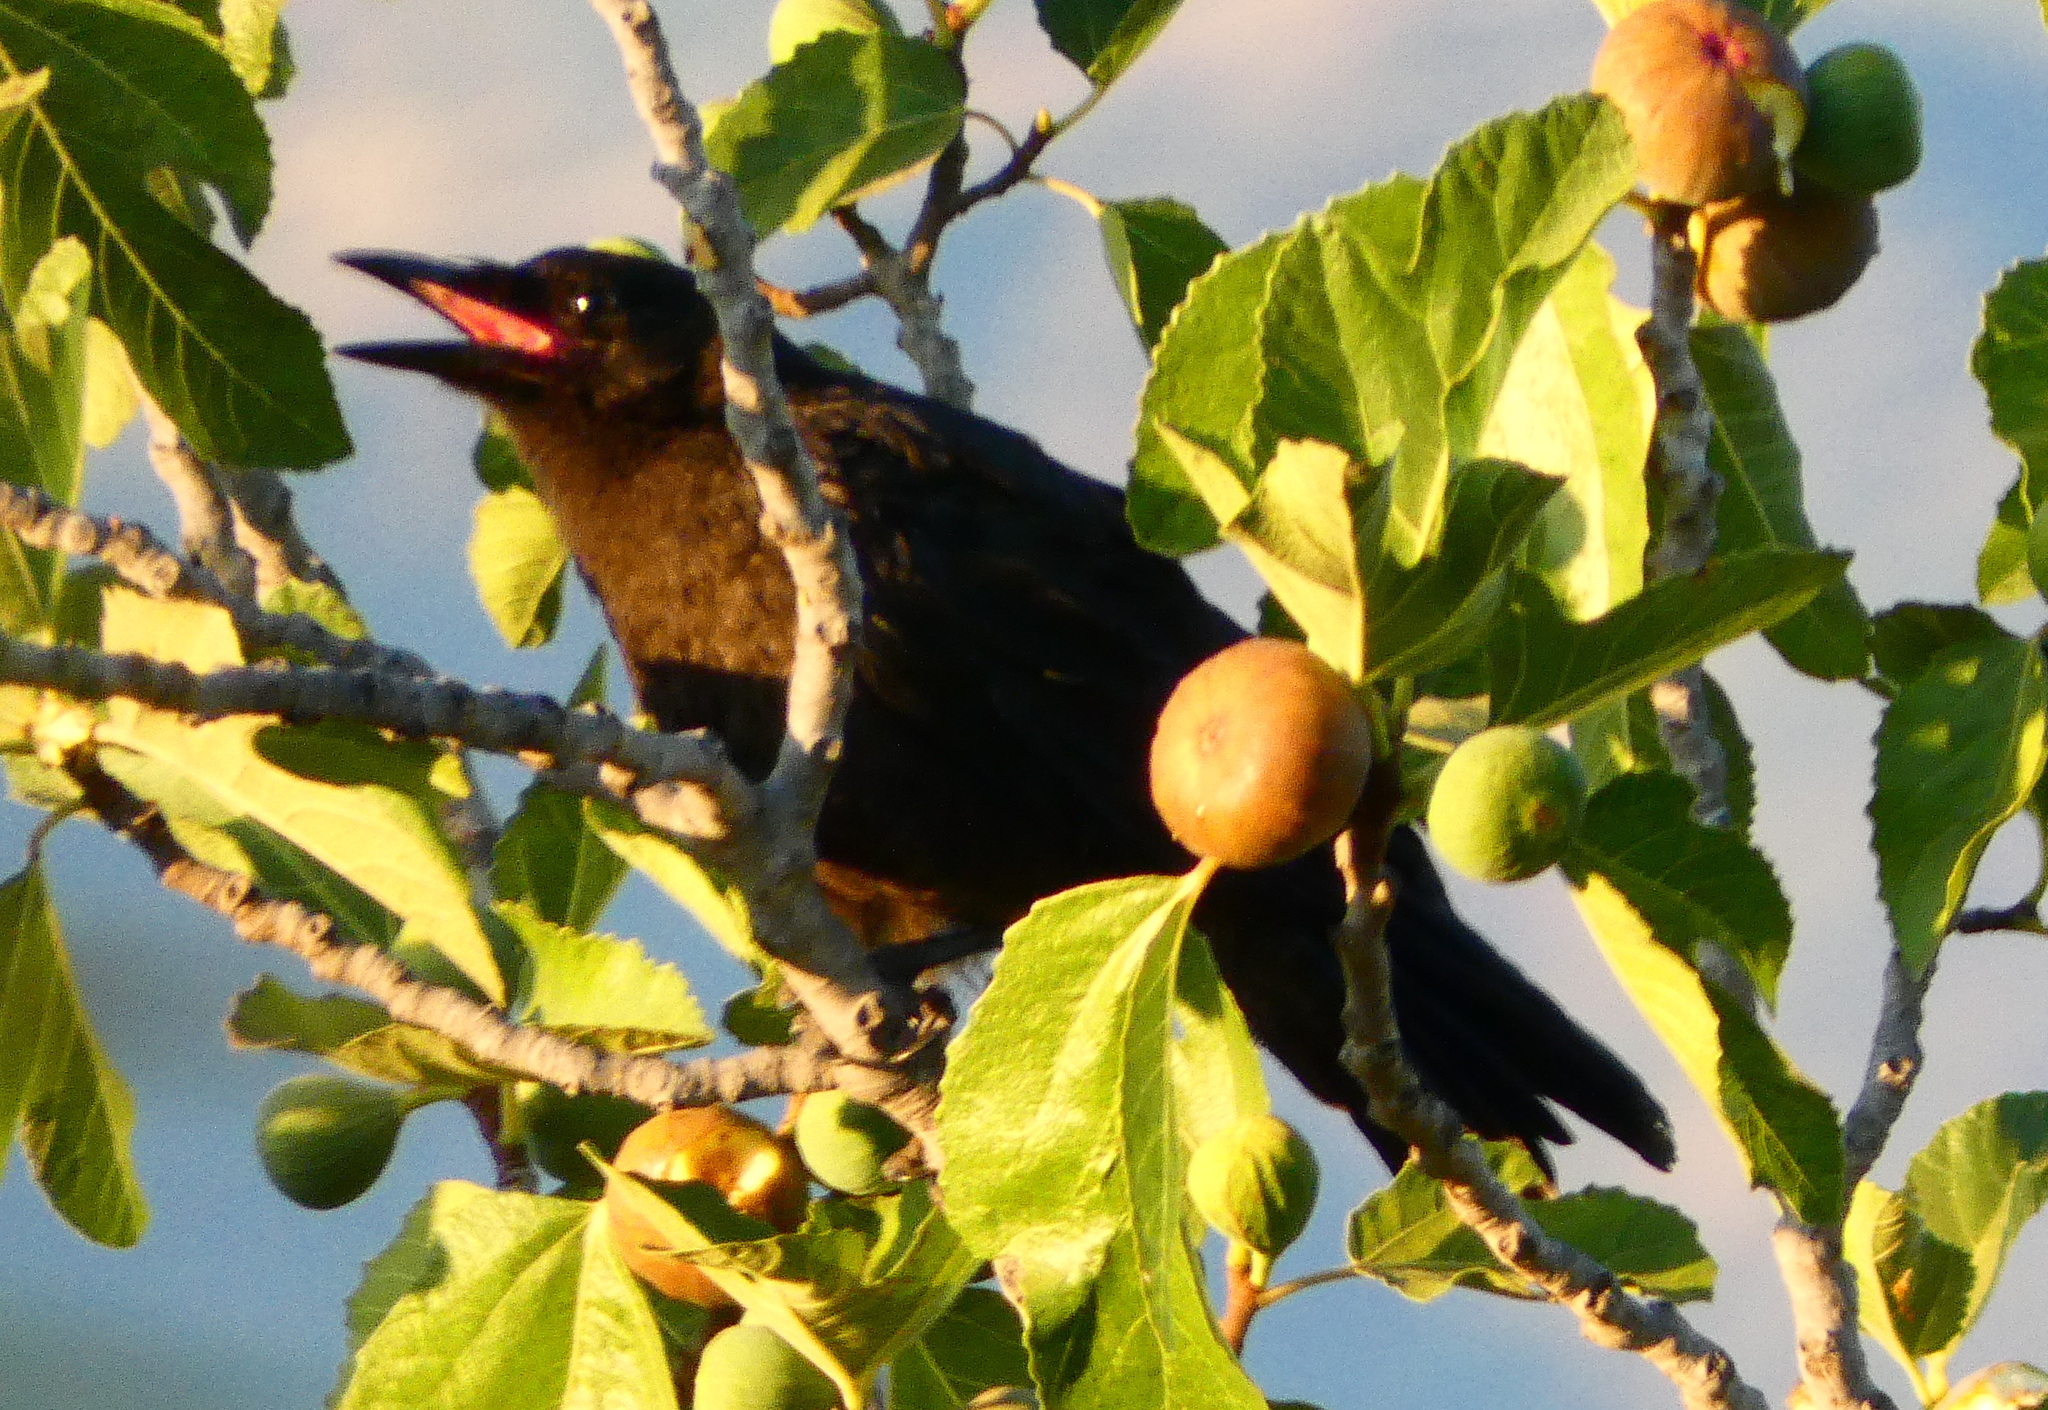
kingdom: Animalia
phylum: Chordata
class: Aves
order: Passeriformes
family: Corvidae
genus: Corvus
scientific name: Corvus brachyrhynchos
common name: American crow
